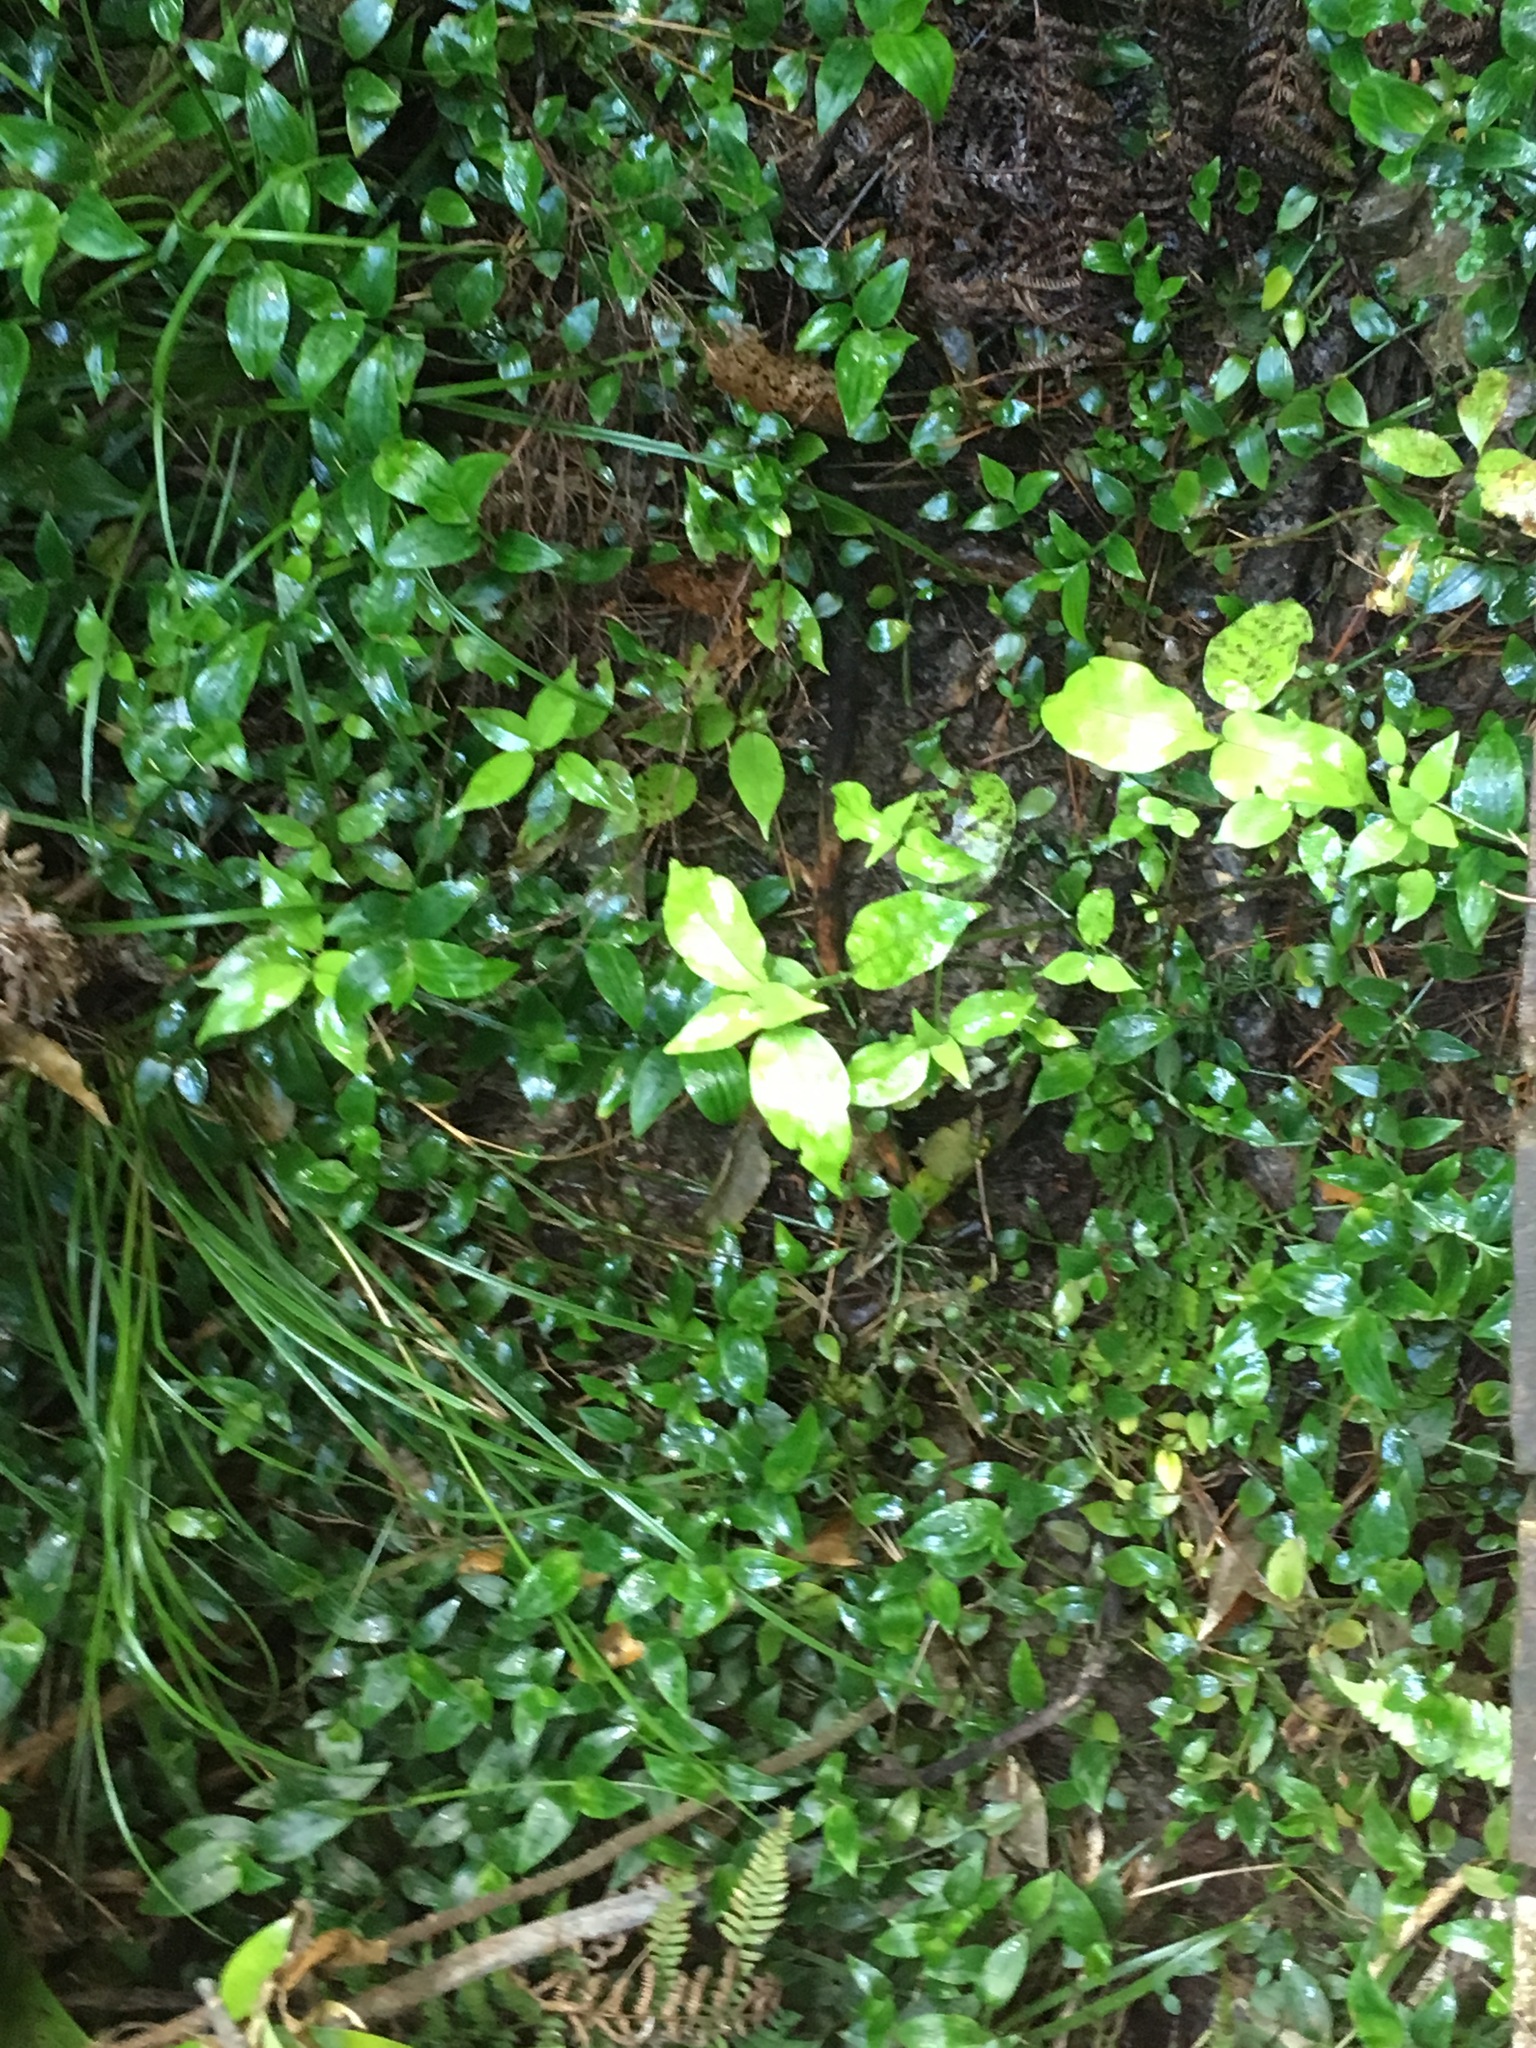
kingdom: Plantae
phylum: Tracheophyta
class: Magnoliopsida
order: Gentianales
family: Loganiaceae
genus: Geniostoma
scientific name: Geniostoma ligustrifolium
